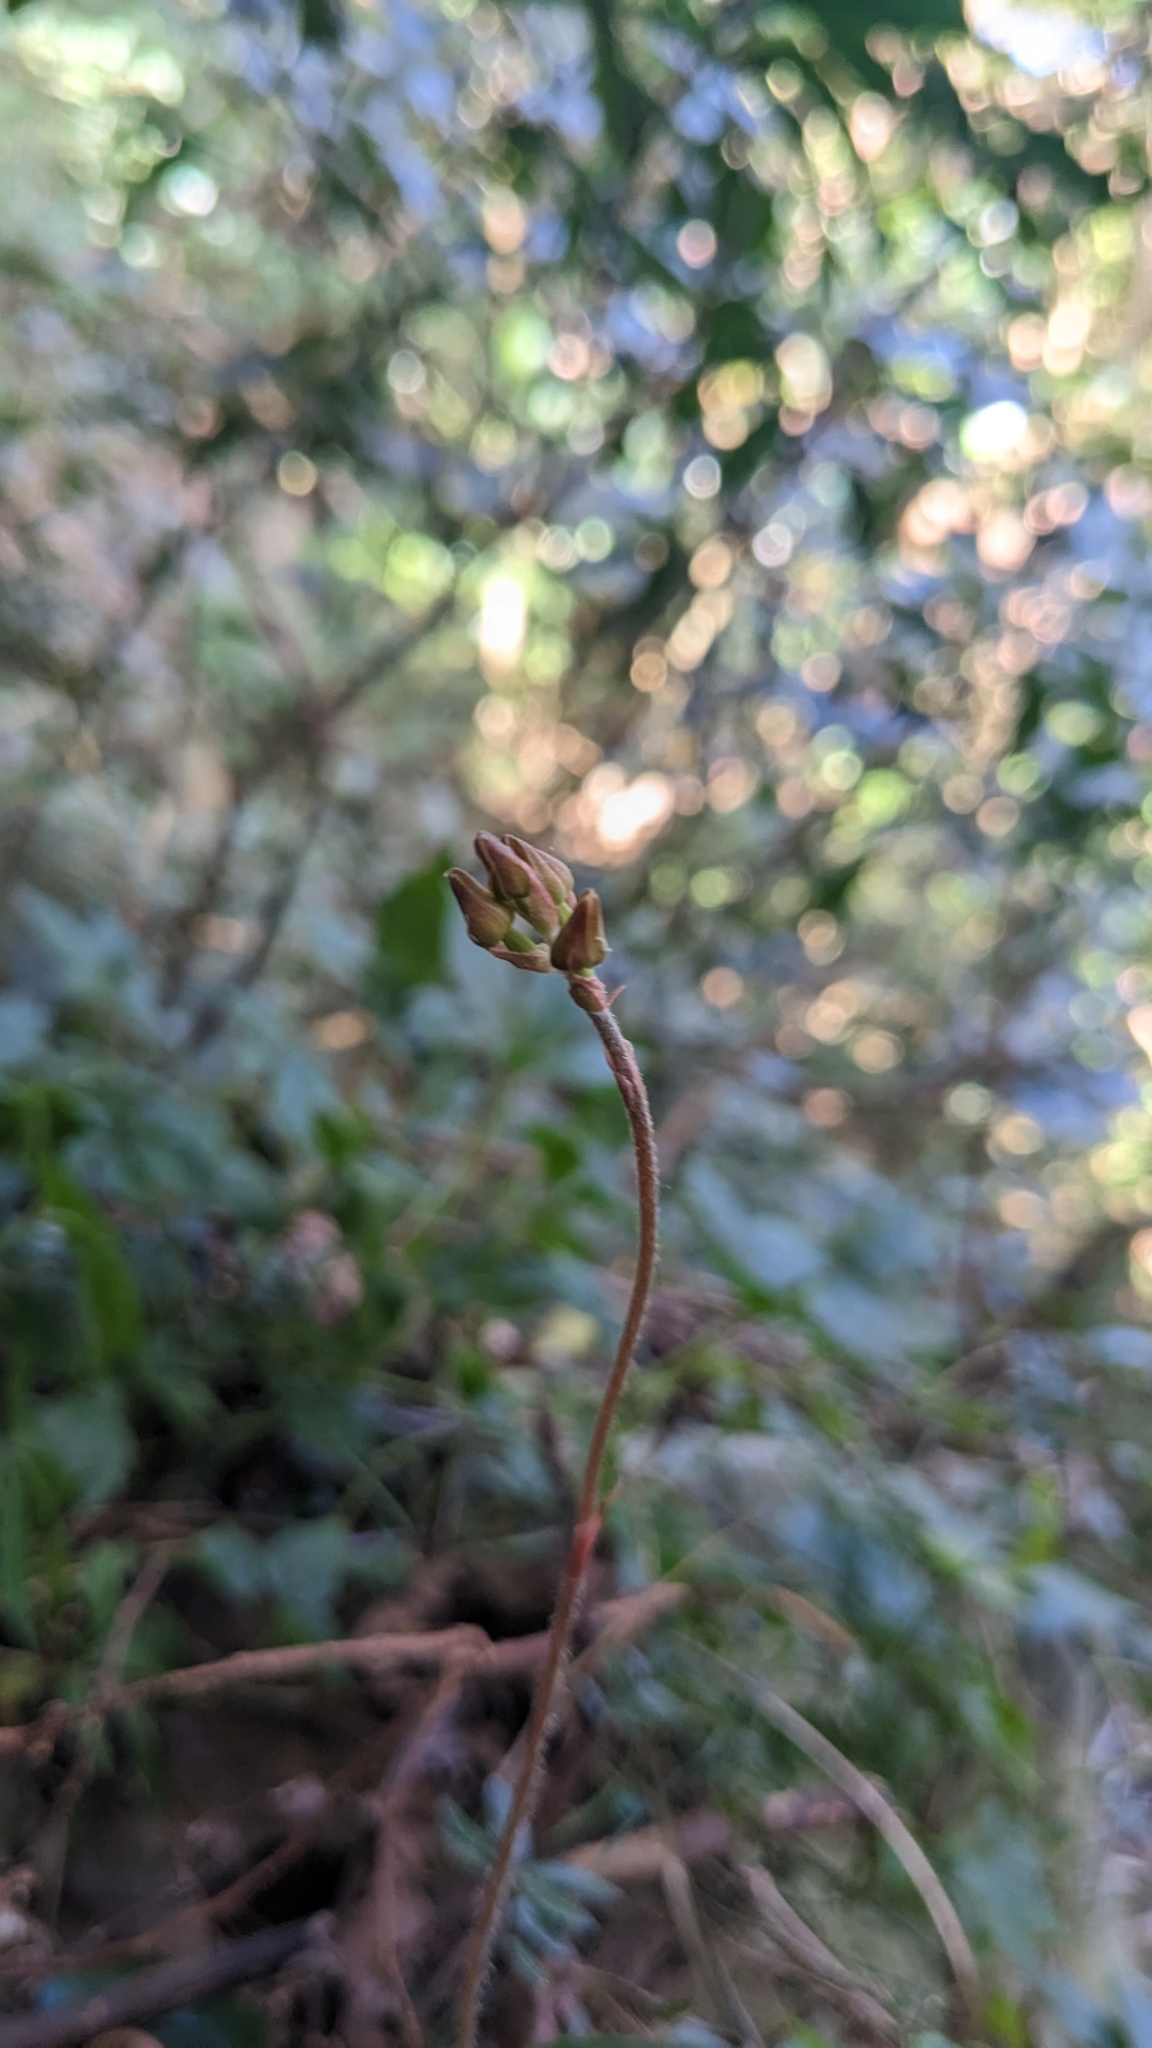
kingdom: Plantae
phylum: Tracheophyta
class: Liliopsida
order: Asparagales
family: Orchidaceae
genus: Zeuxine
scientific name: Zeuxine nervosa
